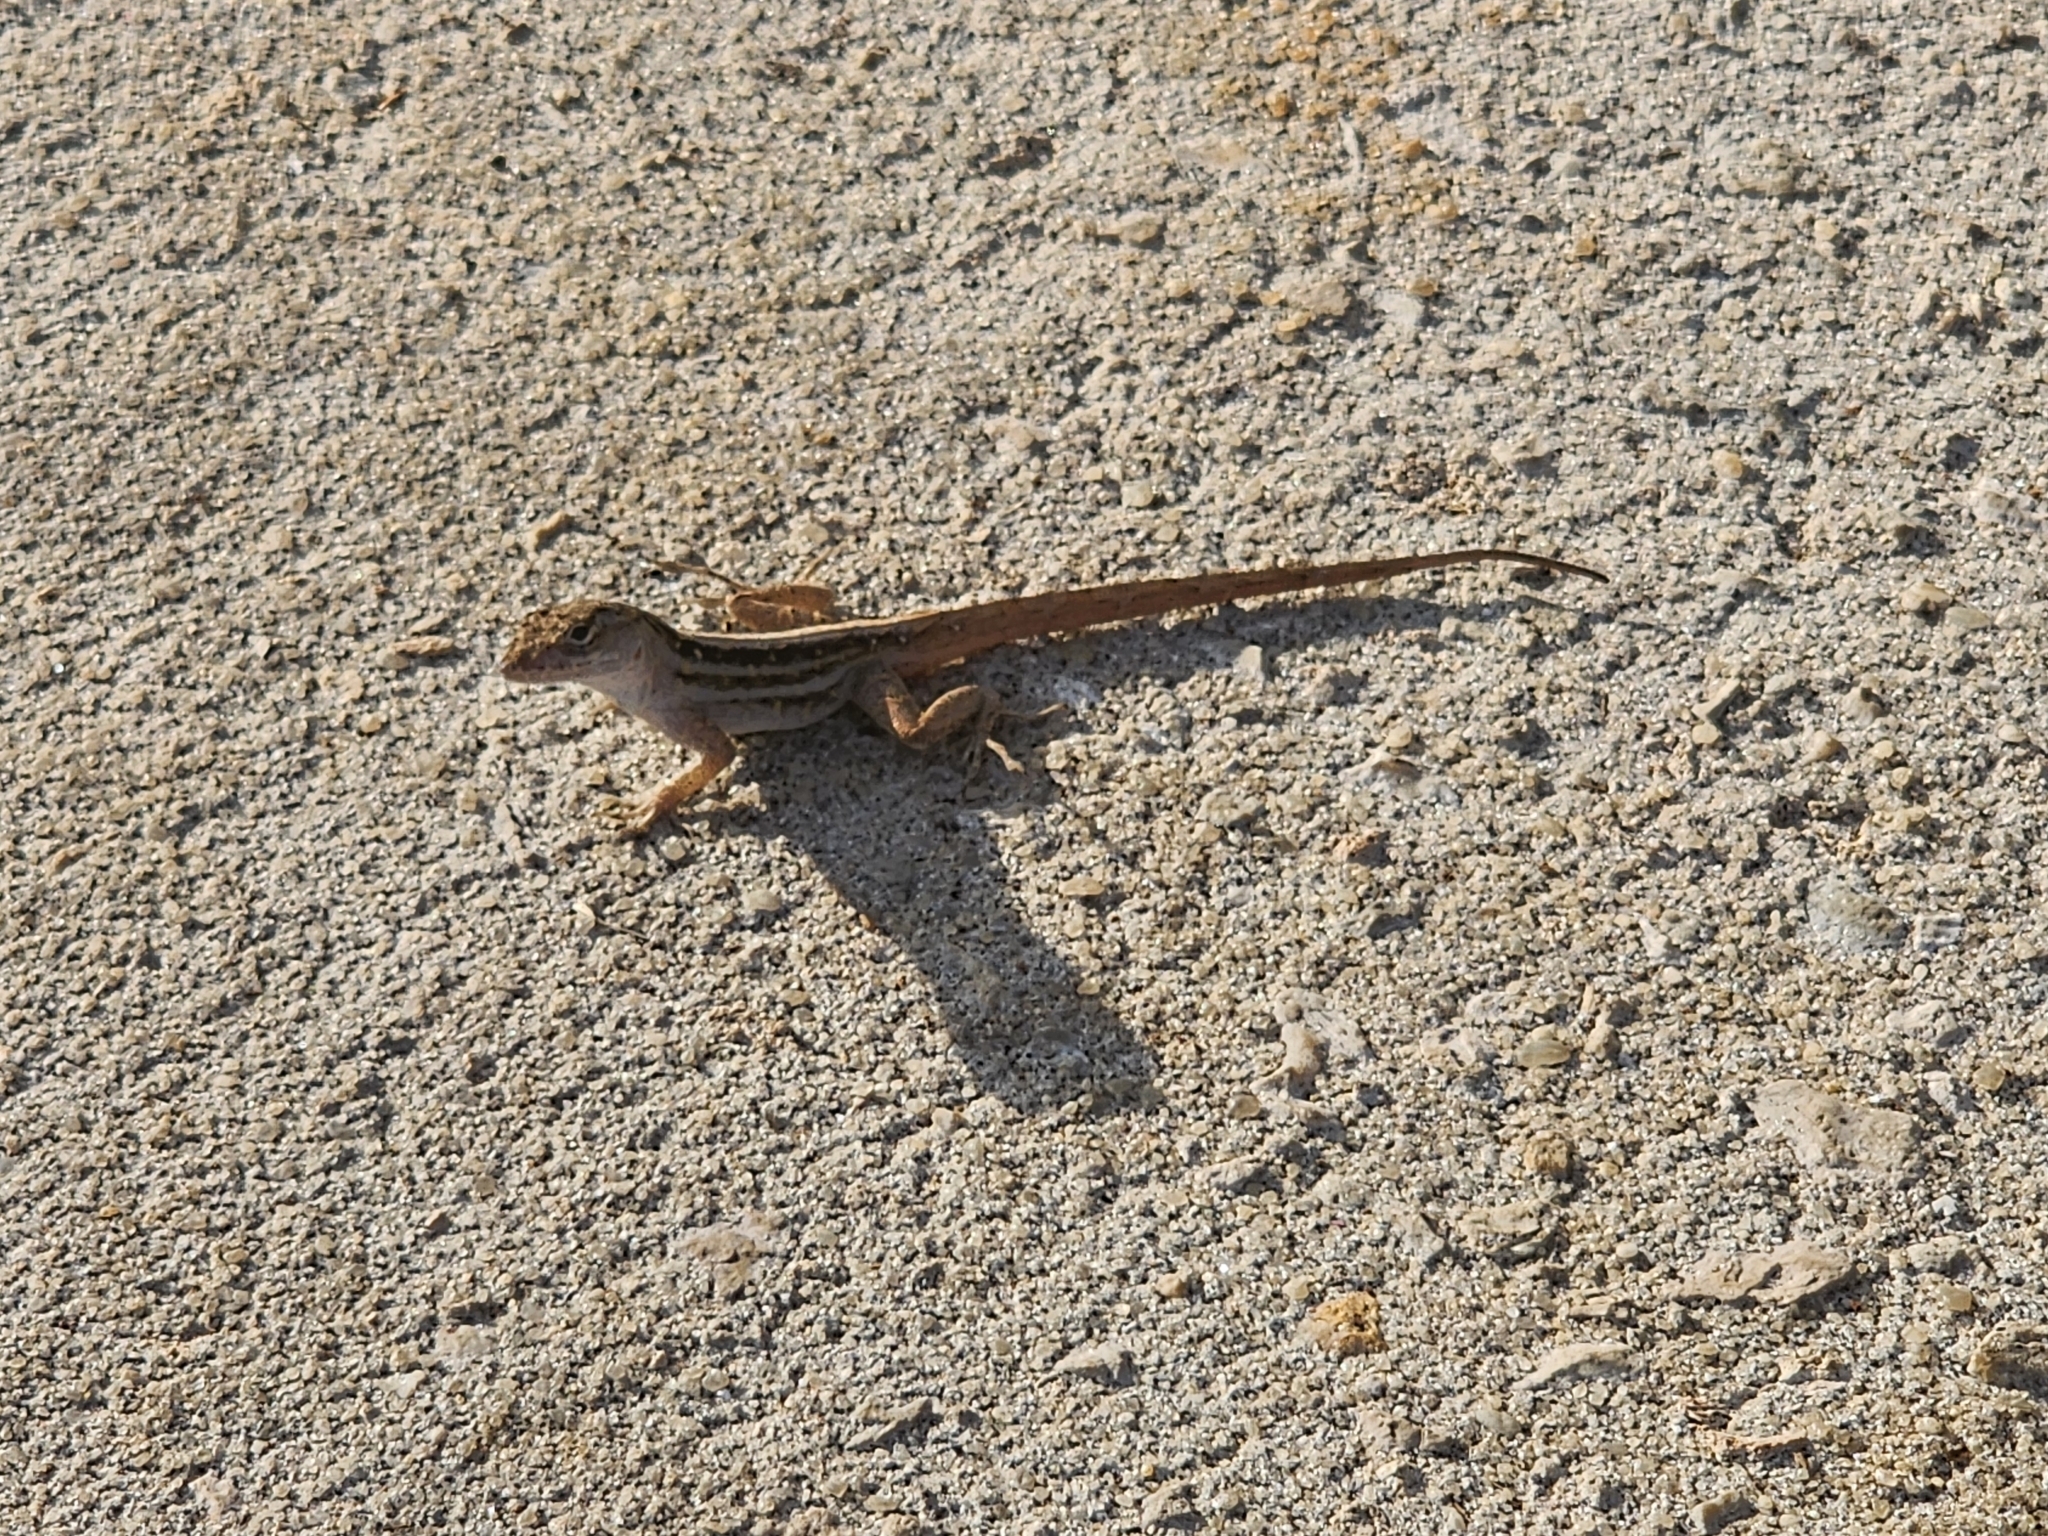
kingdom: Animalia
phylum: Chordata
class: Squamata
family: Dactyloidae
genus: Anolis
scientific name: Anolis sagrei
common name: Brown anole
